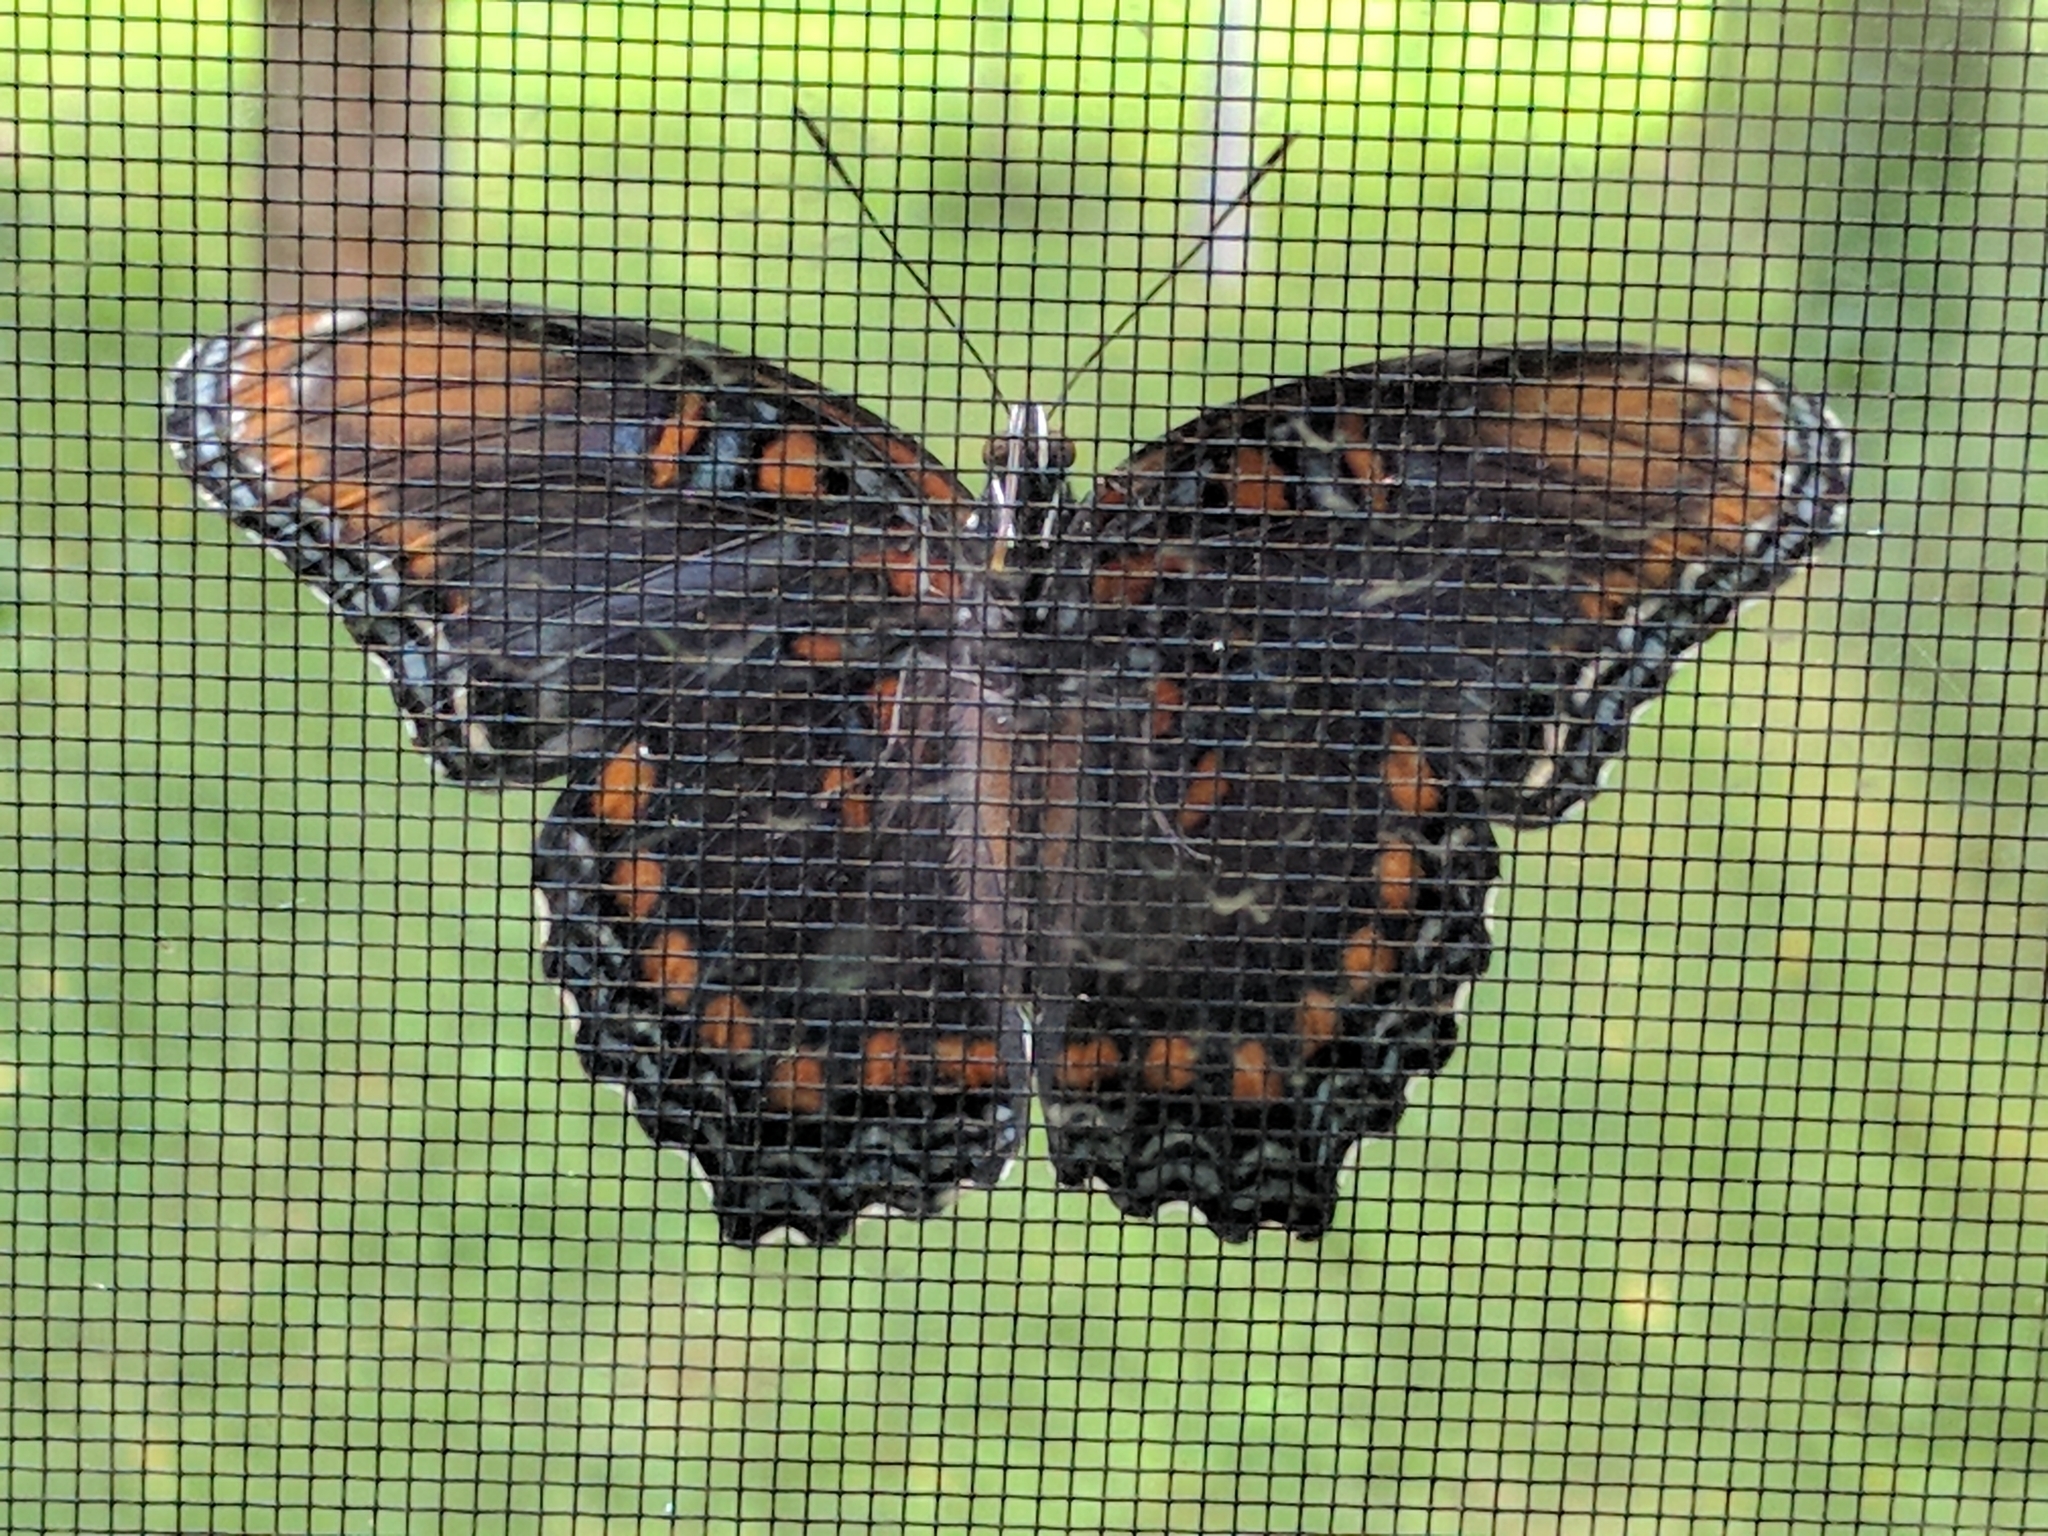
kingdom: Animalia
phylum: Arthropoda
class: Insecta
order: Lepidoptera
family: Nymphalidae
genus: Limenitis
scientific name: Limenitis arthemis
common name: Red-spotted admiral
